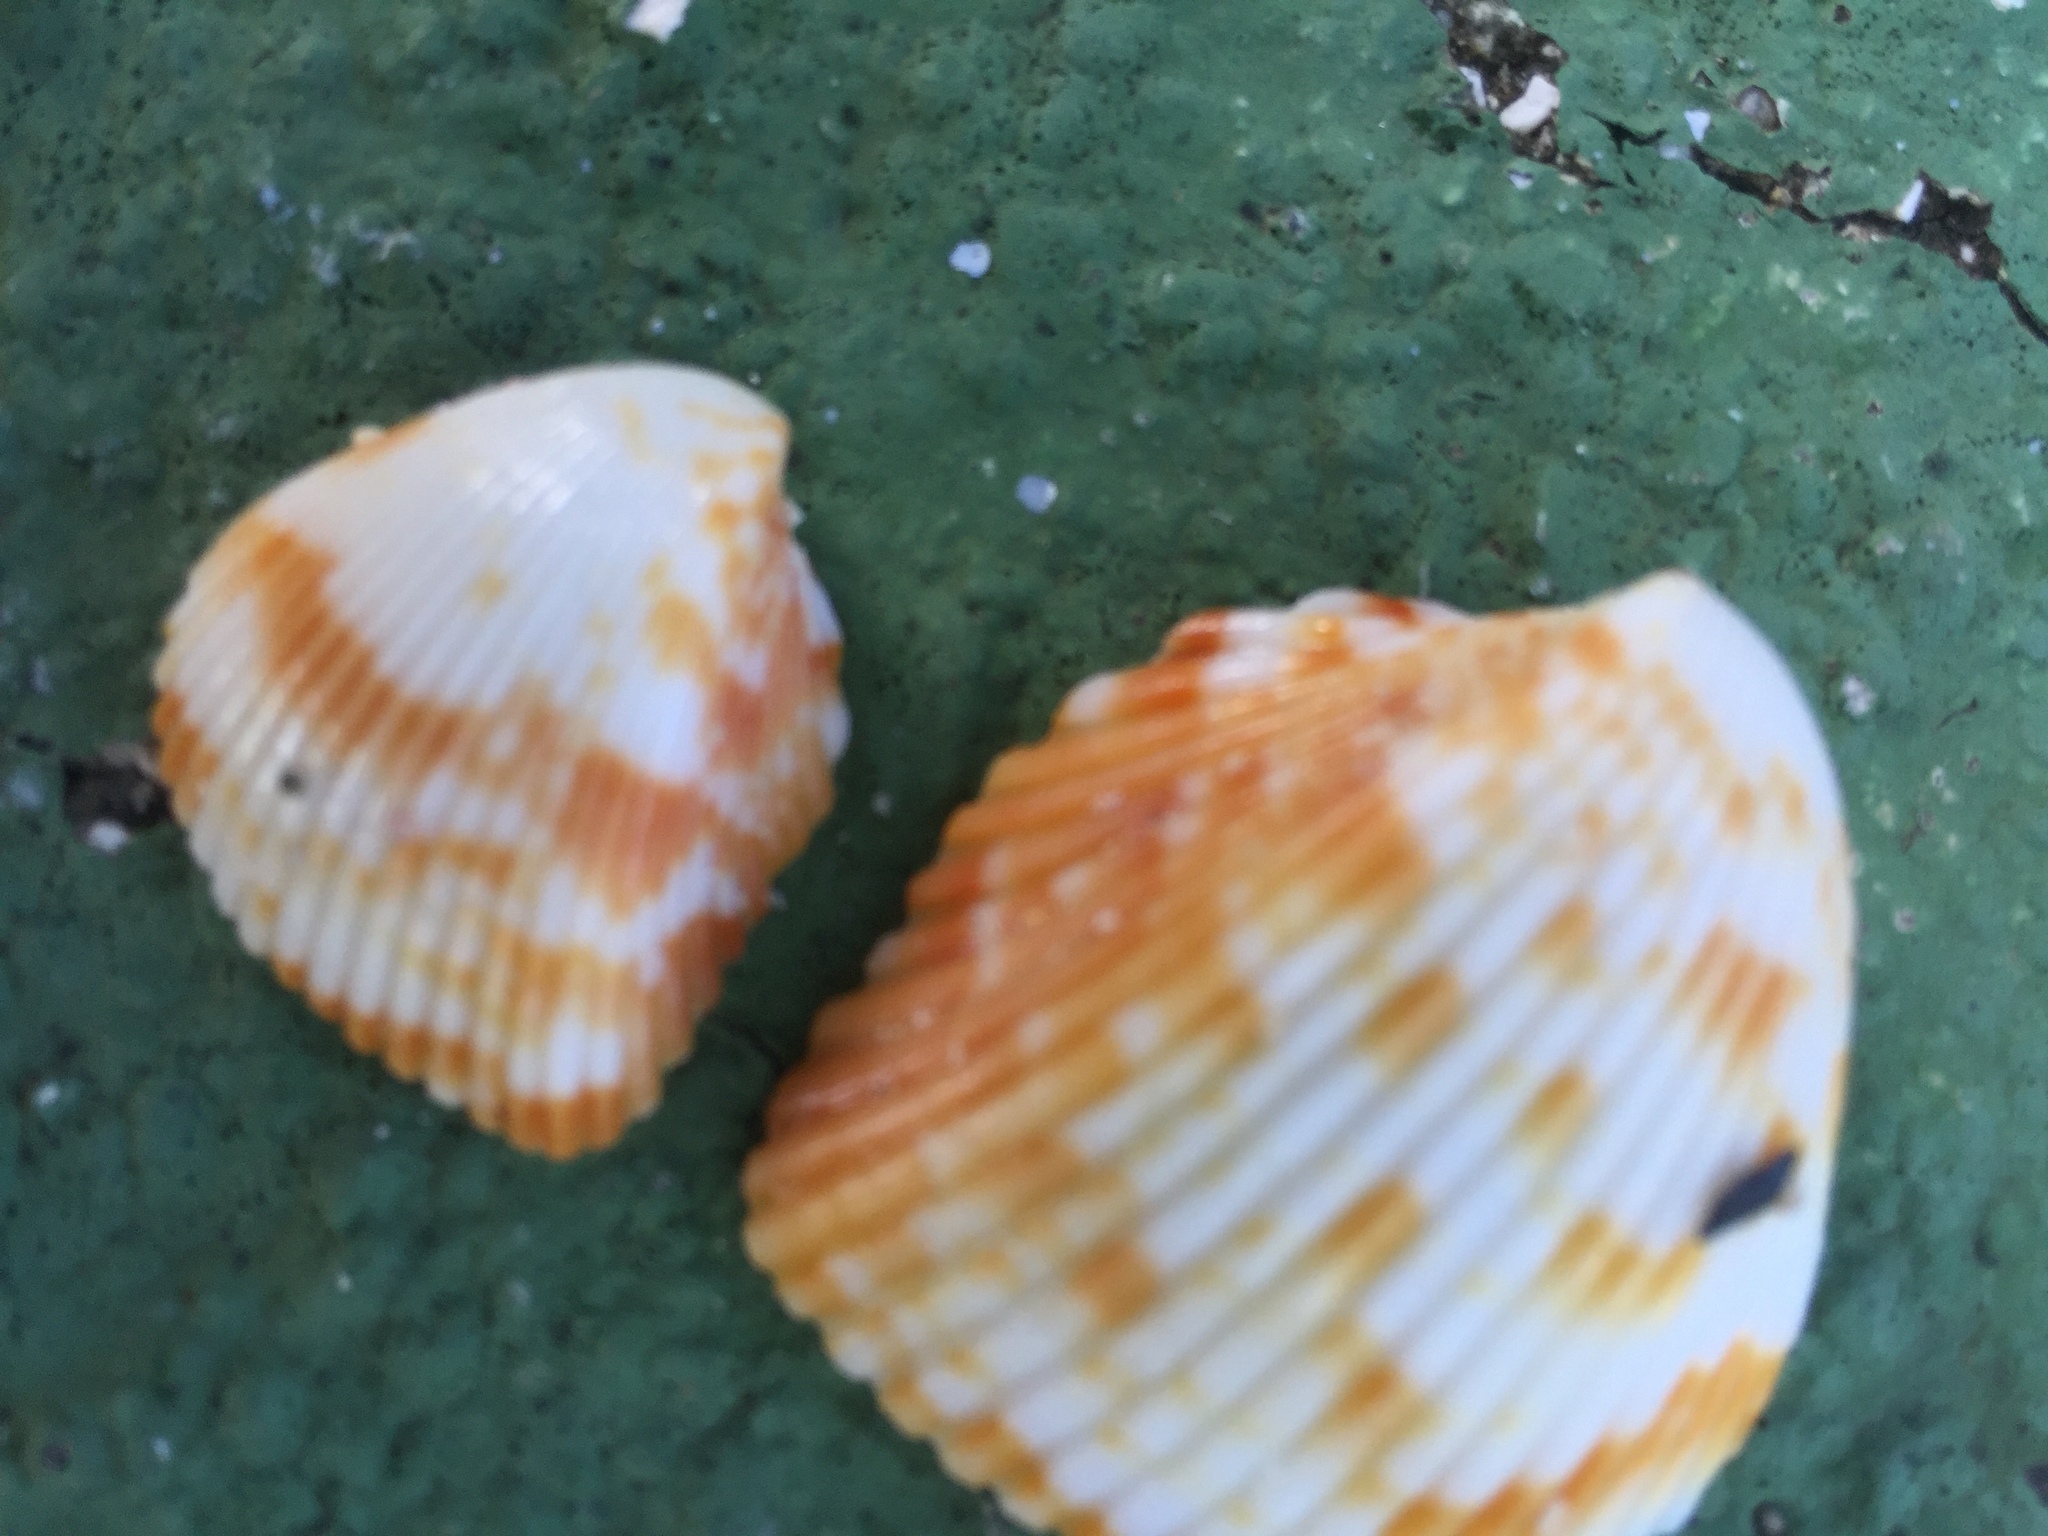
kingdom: Animalia
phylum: Mollusca
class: Bivalvia
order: Cardiida
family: Cardiidae
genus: Americardia
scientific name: Americardia media
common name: Atlantic strawberry-cockle
